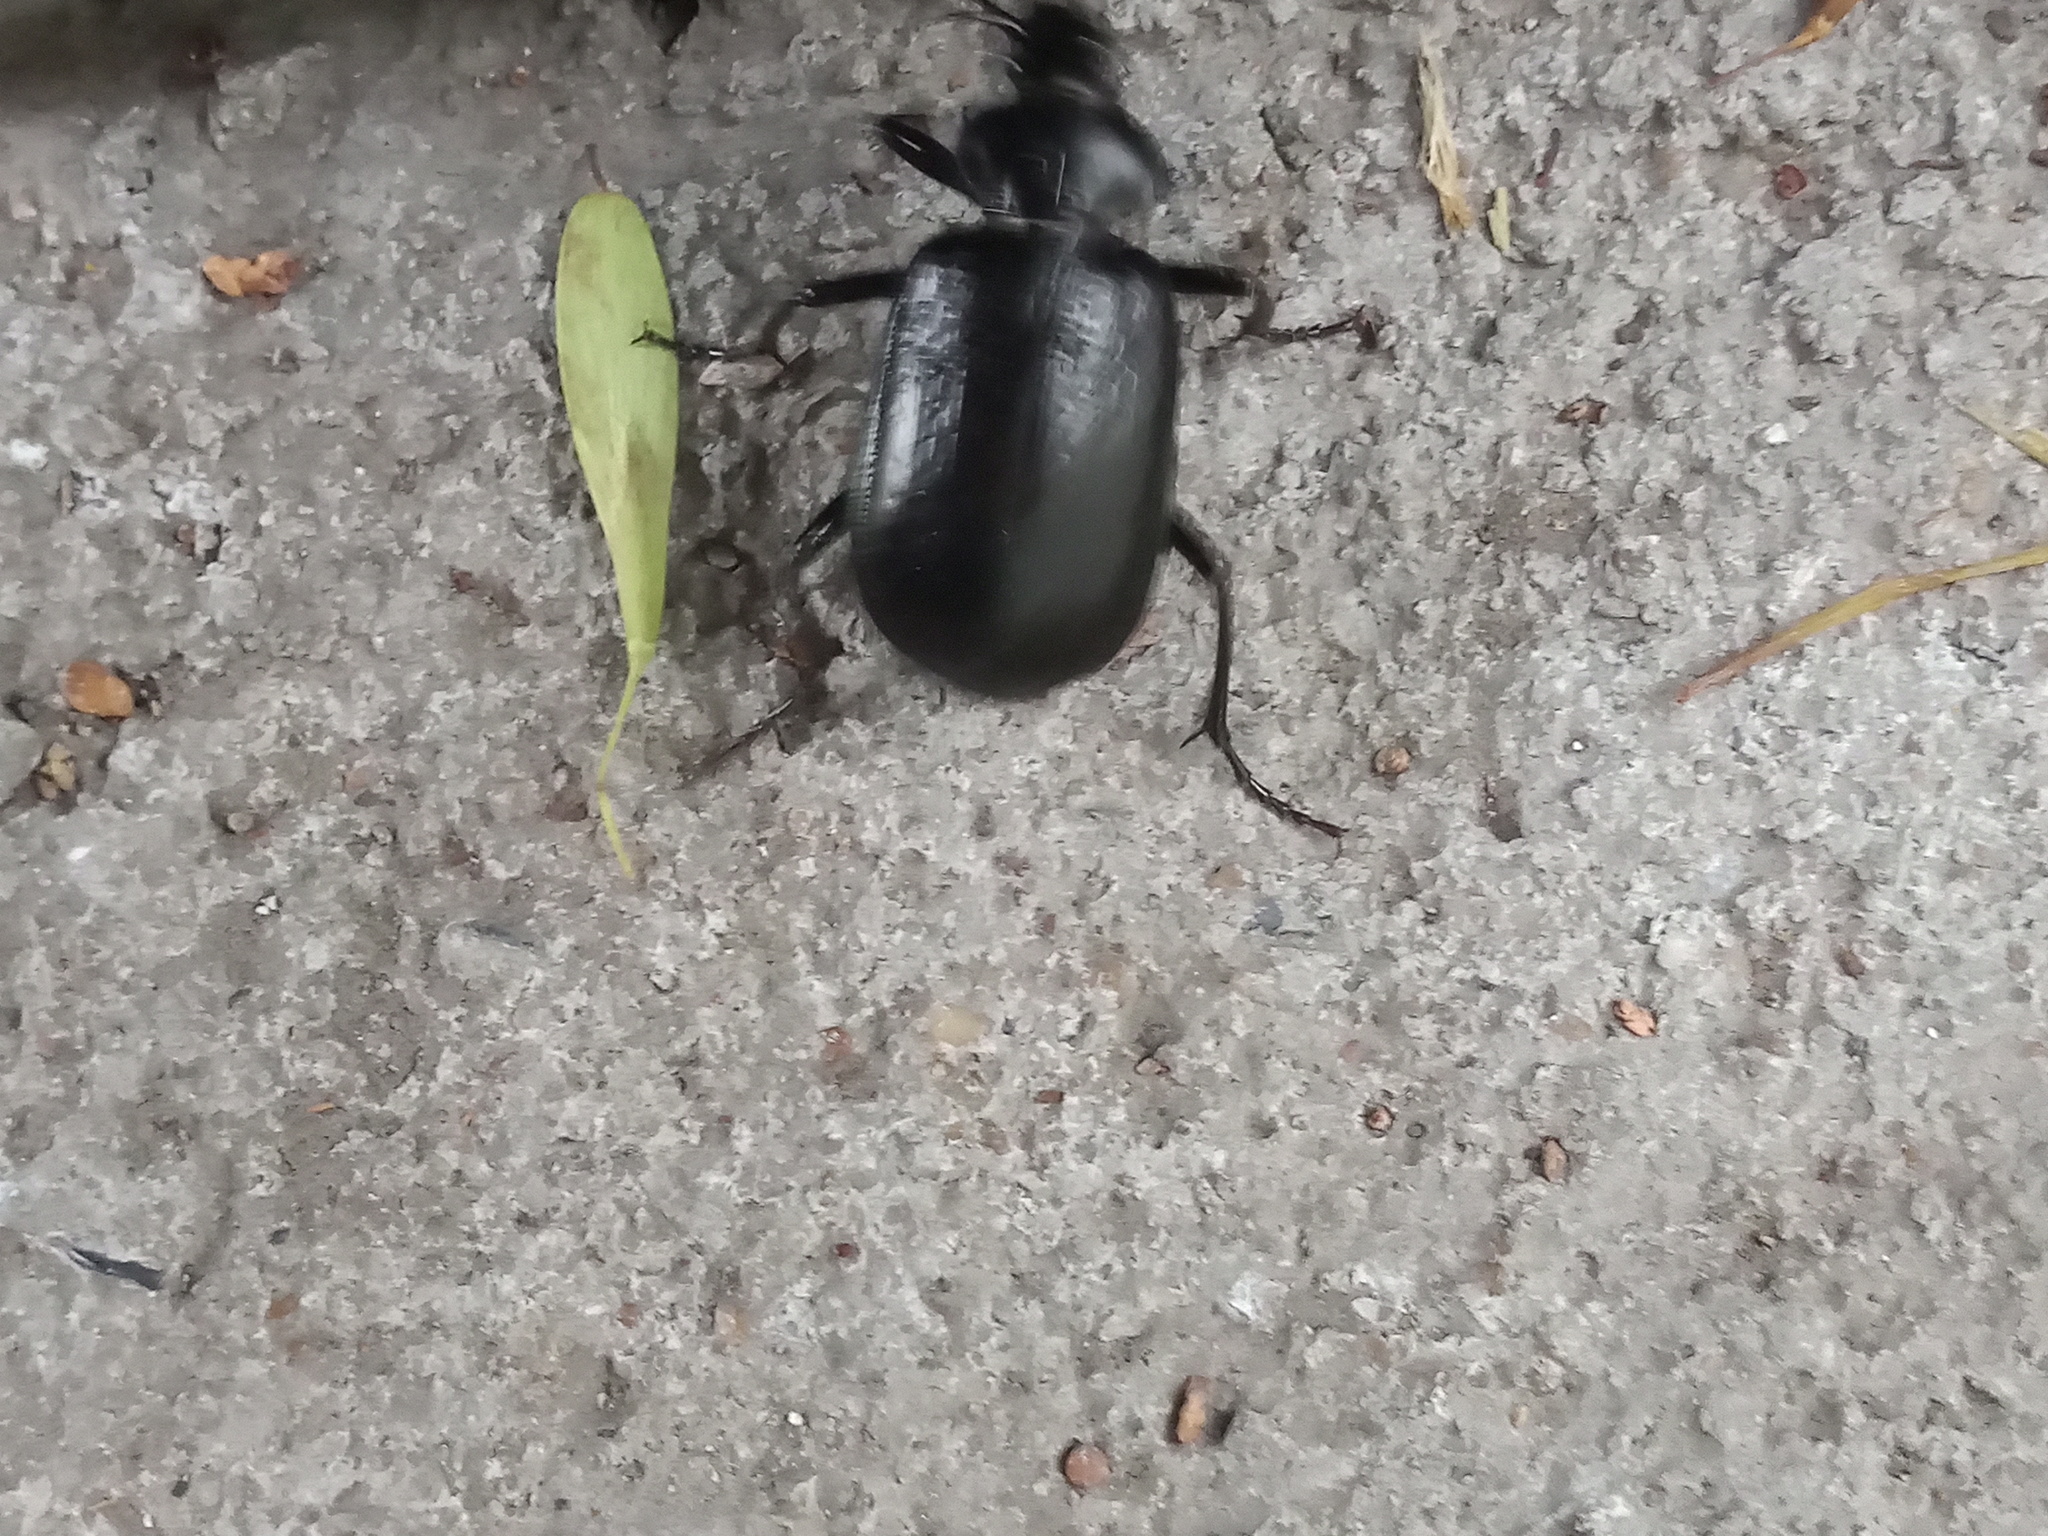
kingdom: Animalia
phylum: Arthropoda
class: Insecta
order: Coleoptera
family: Carabidae
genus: Calosoma
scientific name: Calosoma marginale
